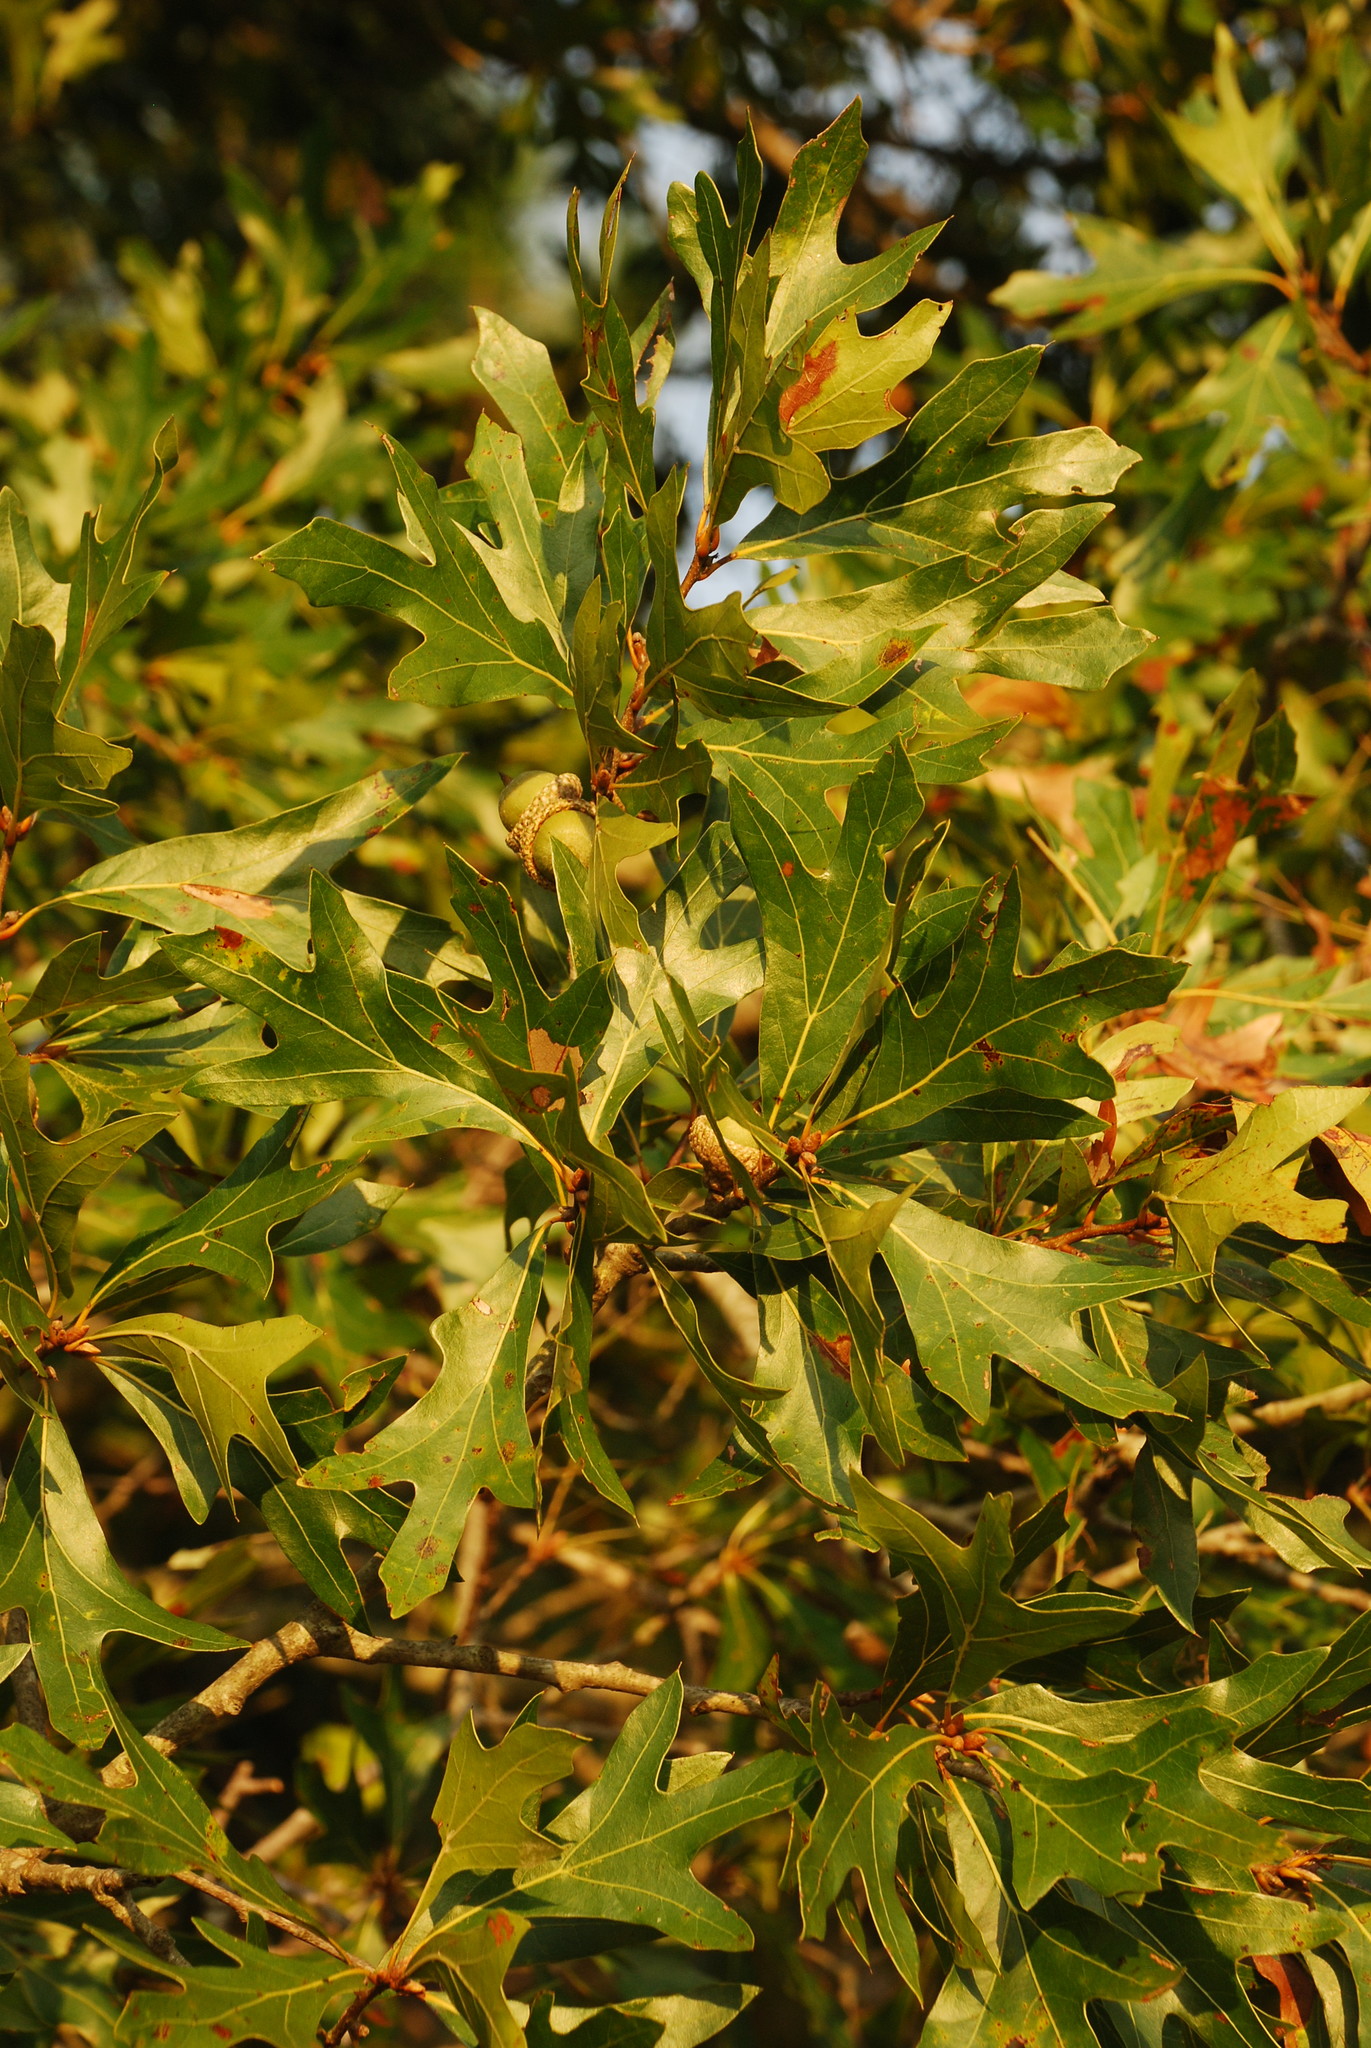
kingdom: Plantae
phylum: Tracheophyta
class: Magnoliopsida
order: Fagales
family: Fagaceae
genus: Quercus
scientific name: Quercus walteriana
